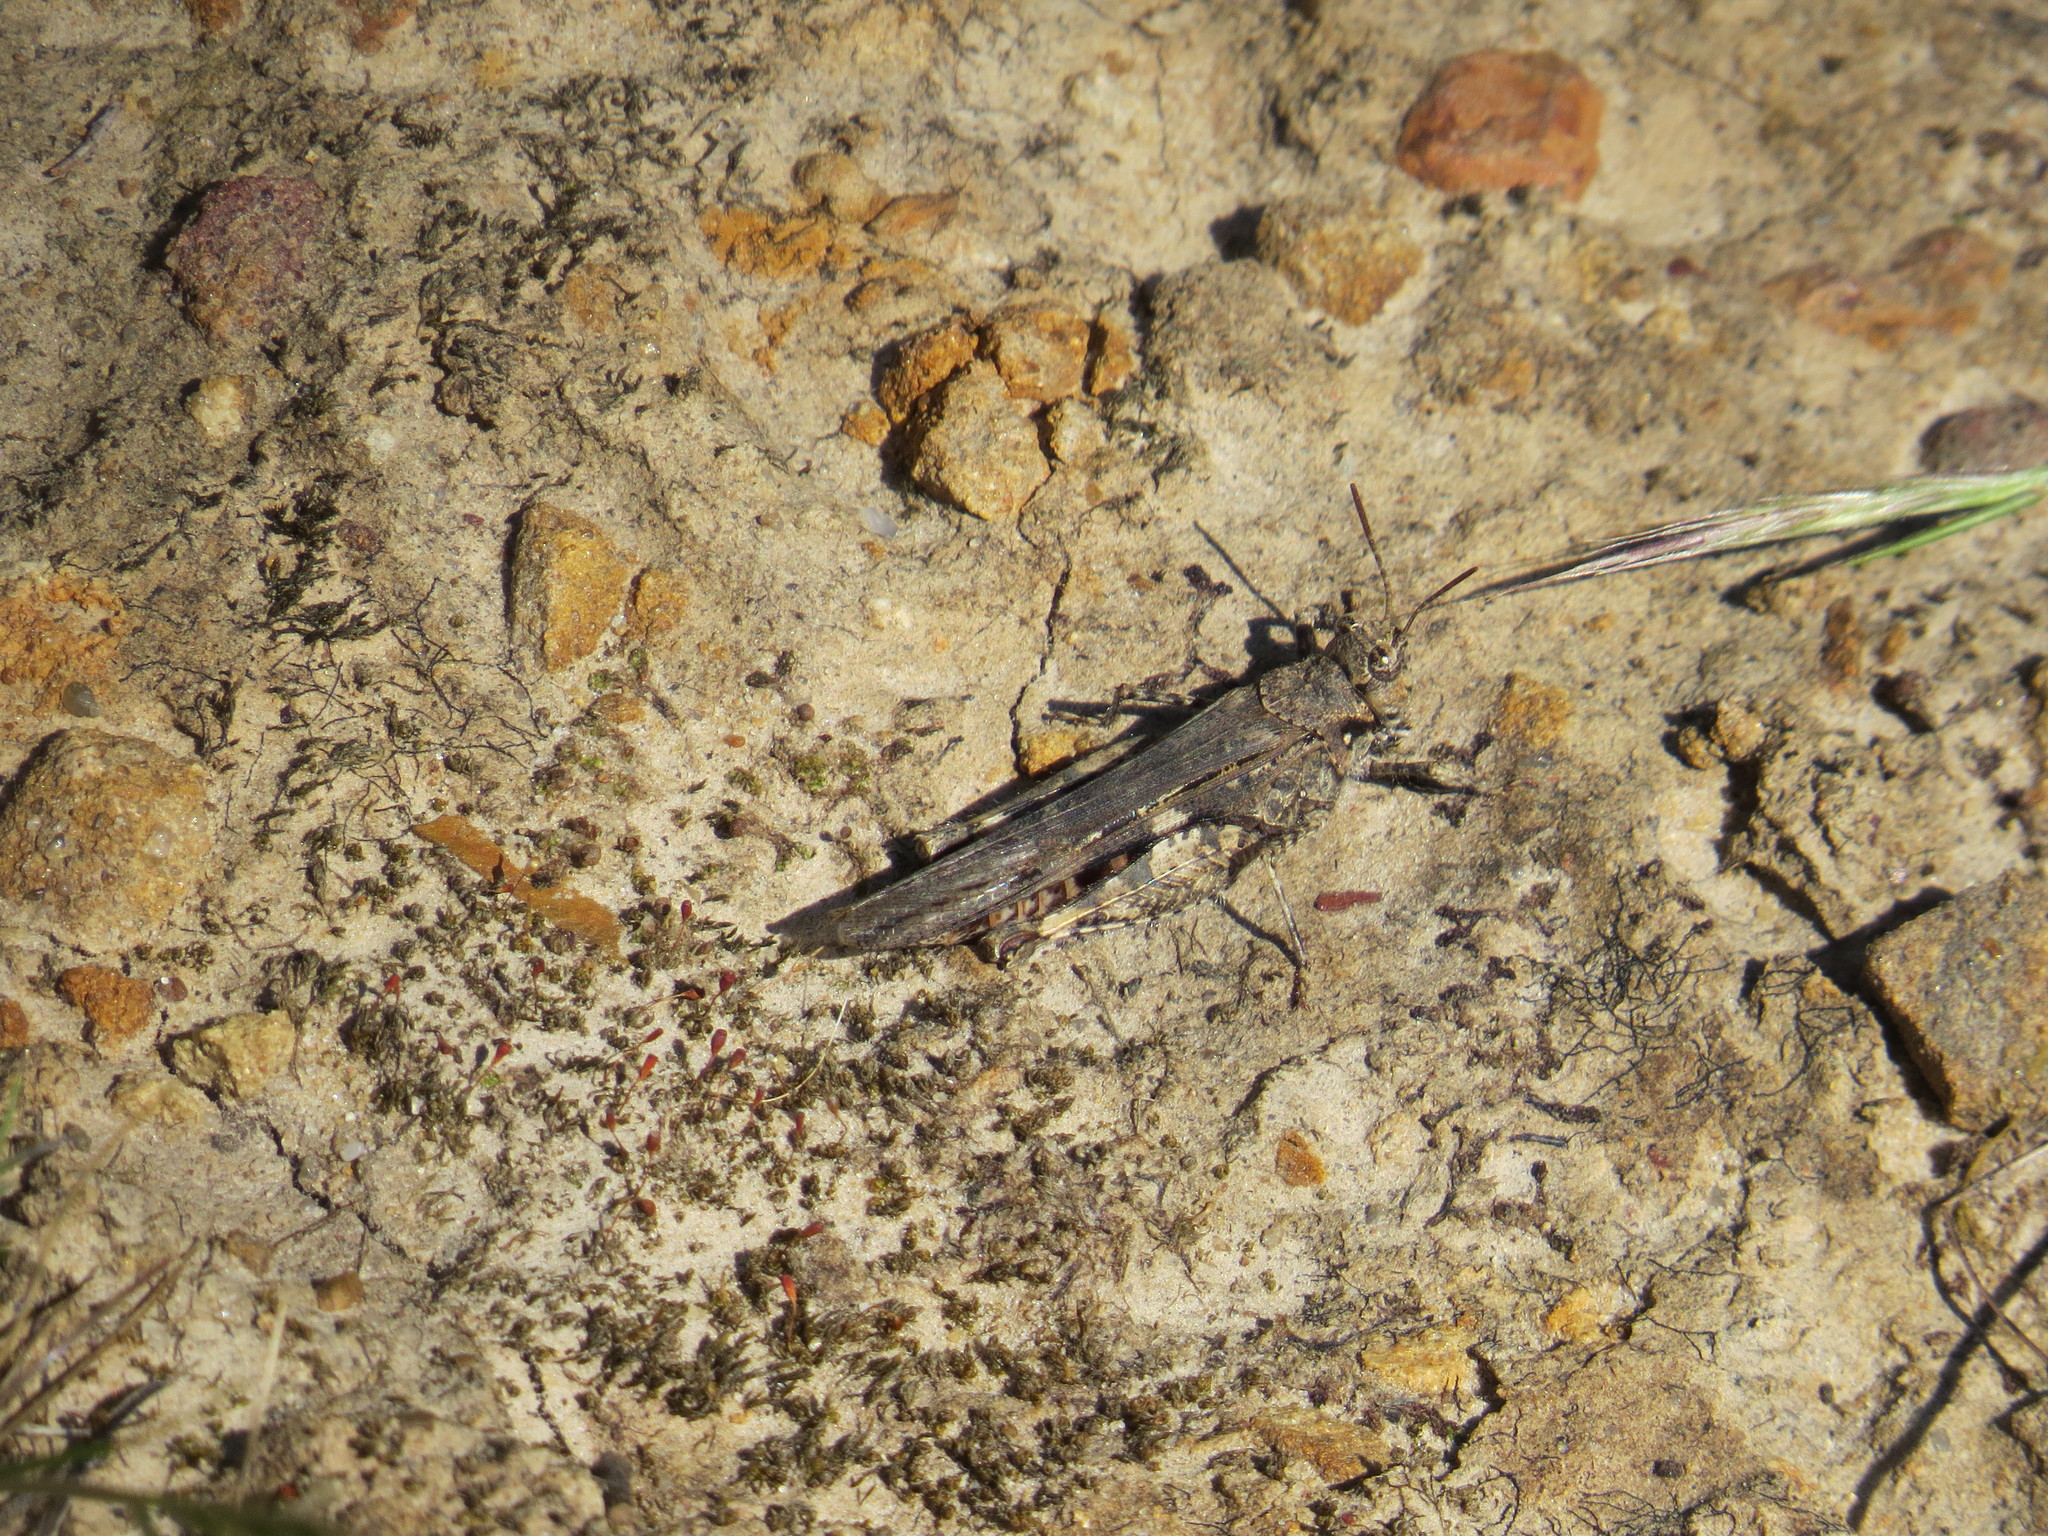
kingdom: Animalia
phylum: Arthropoda
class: Insecta
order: Orthoptera
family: Acrididae
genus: Acrotylus
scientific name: Acrotylus insubricus
